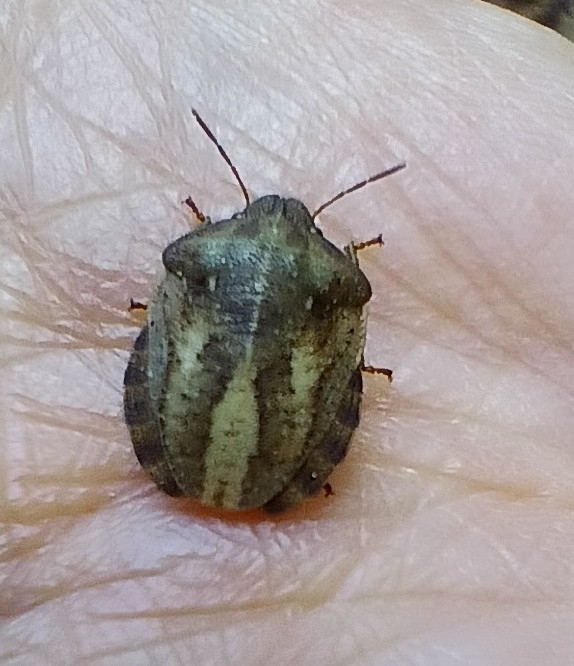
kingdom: Animalia
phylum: Arthropoda
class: Insecta
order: Hemiptera
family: Scutelleridae
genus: Eurygaster
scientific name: Eurygaster testudinaria
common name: Tortoise bug
